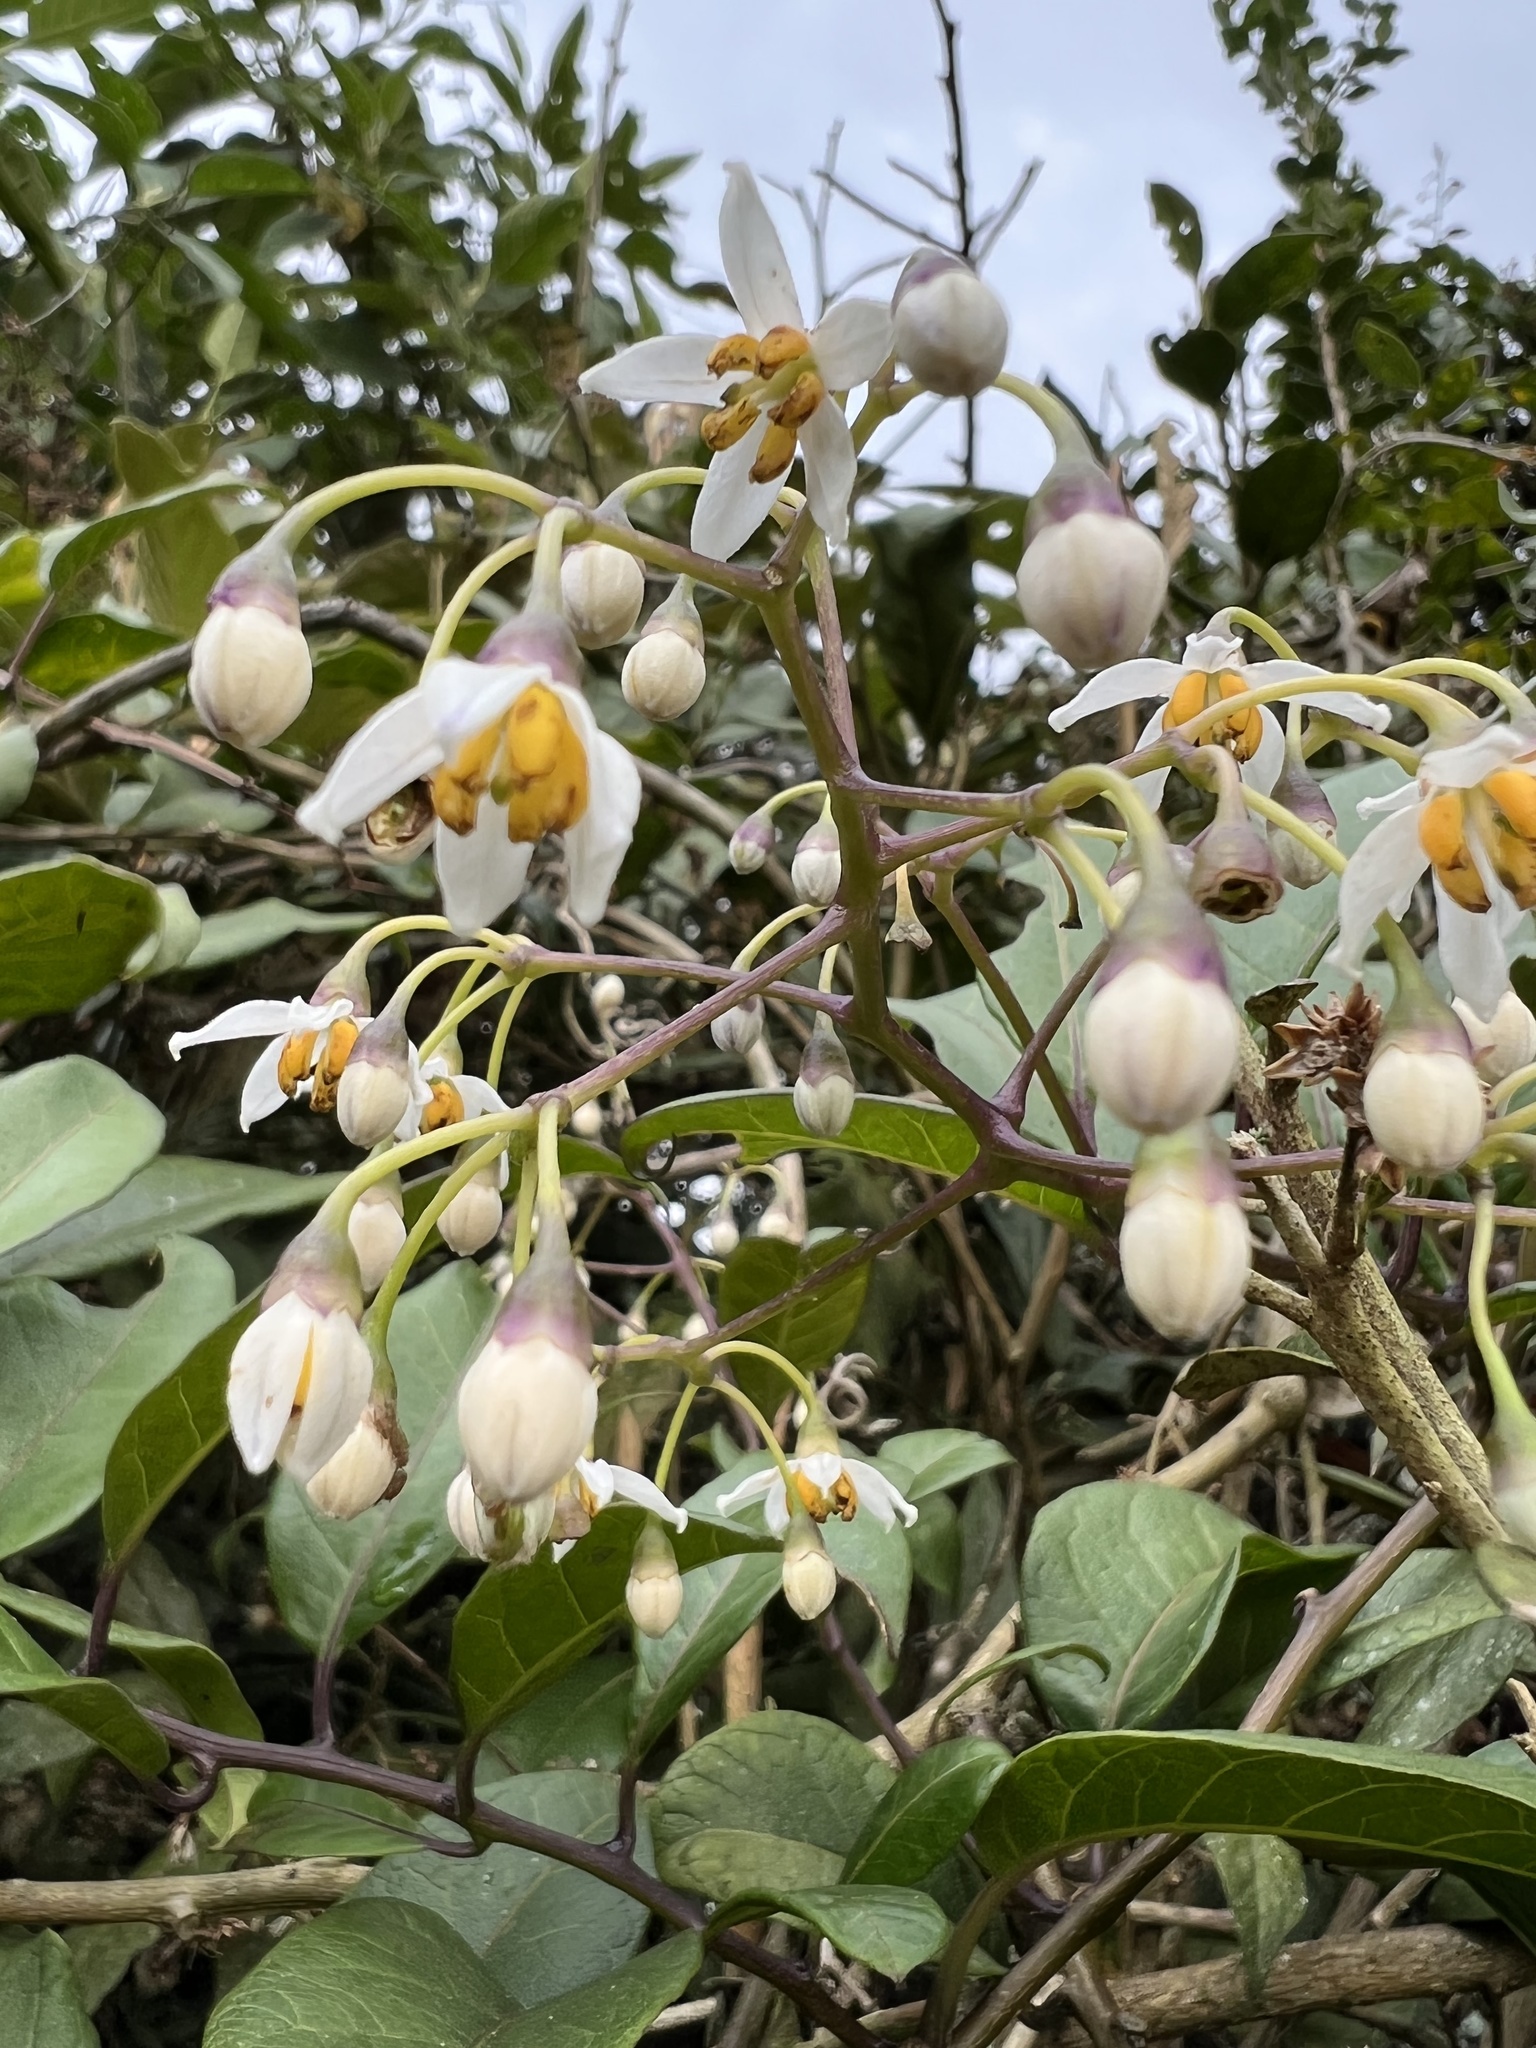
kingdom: Plantae
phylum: Tracheophyta
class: Magnoliopsida
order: Solanales
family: Solanaceae
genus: Solanum
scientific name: Solanum luculentum
